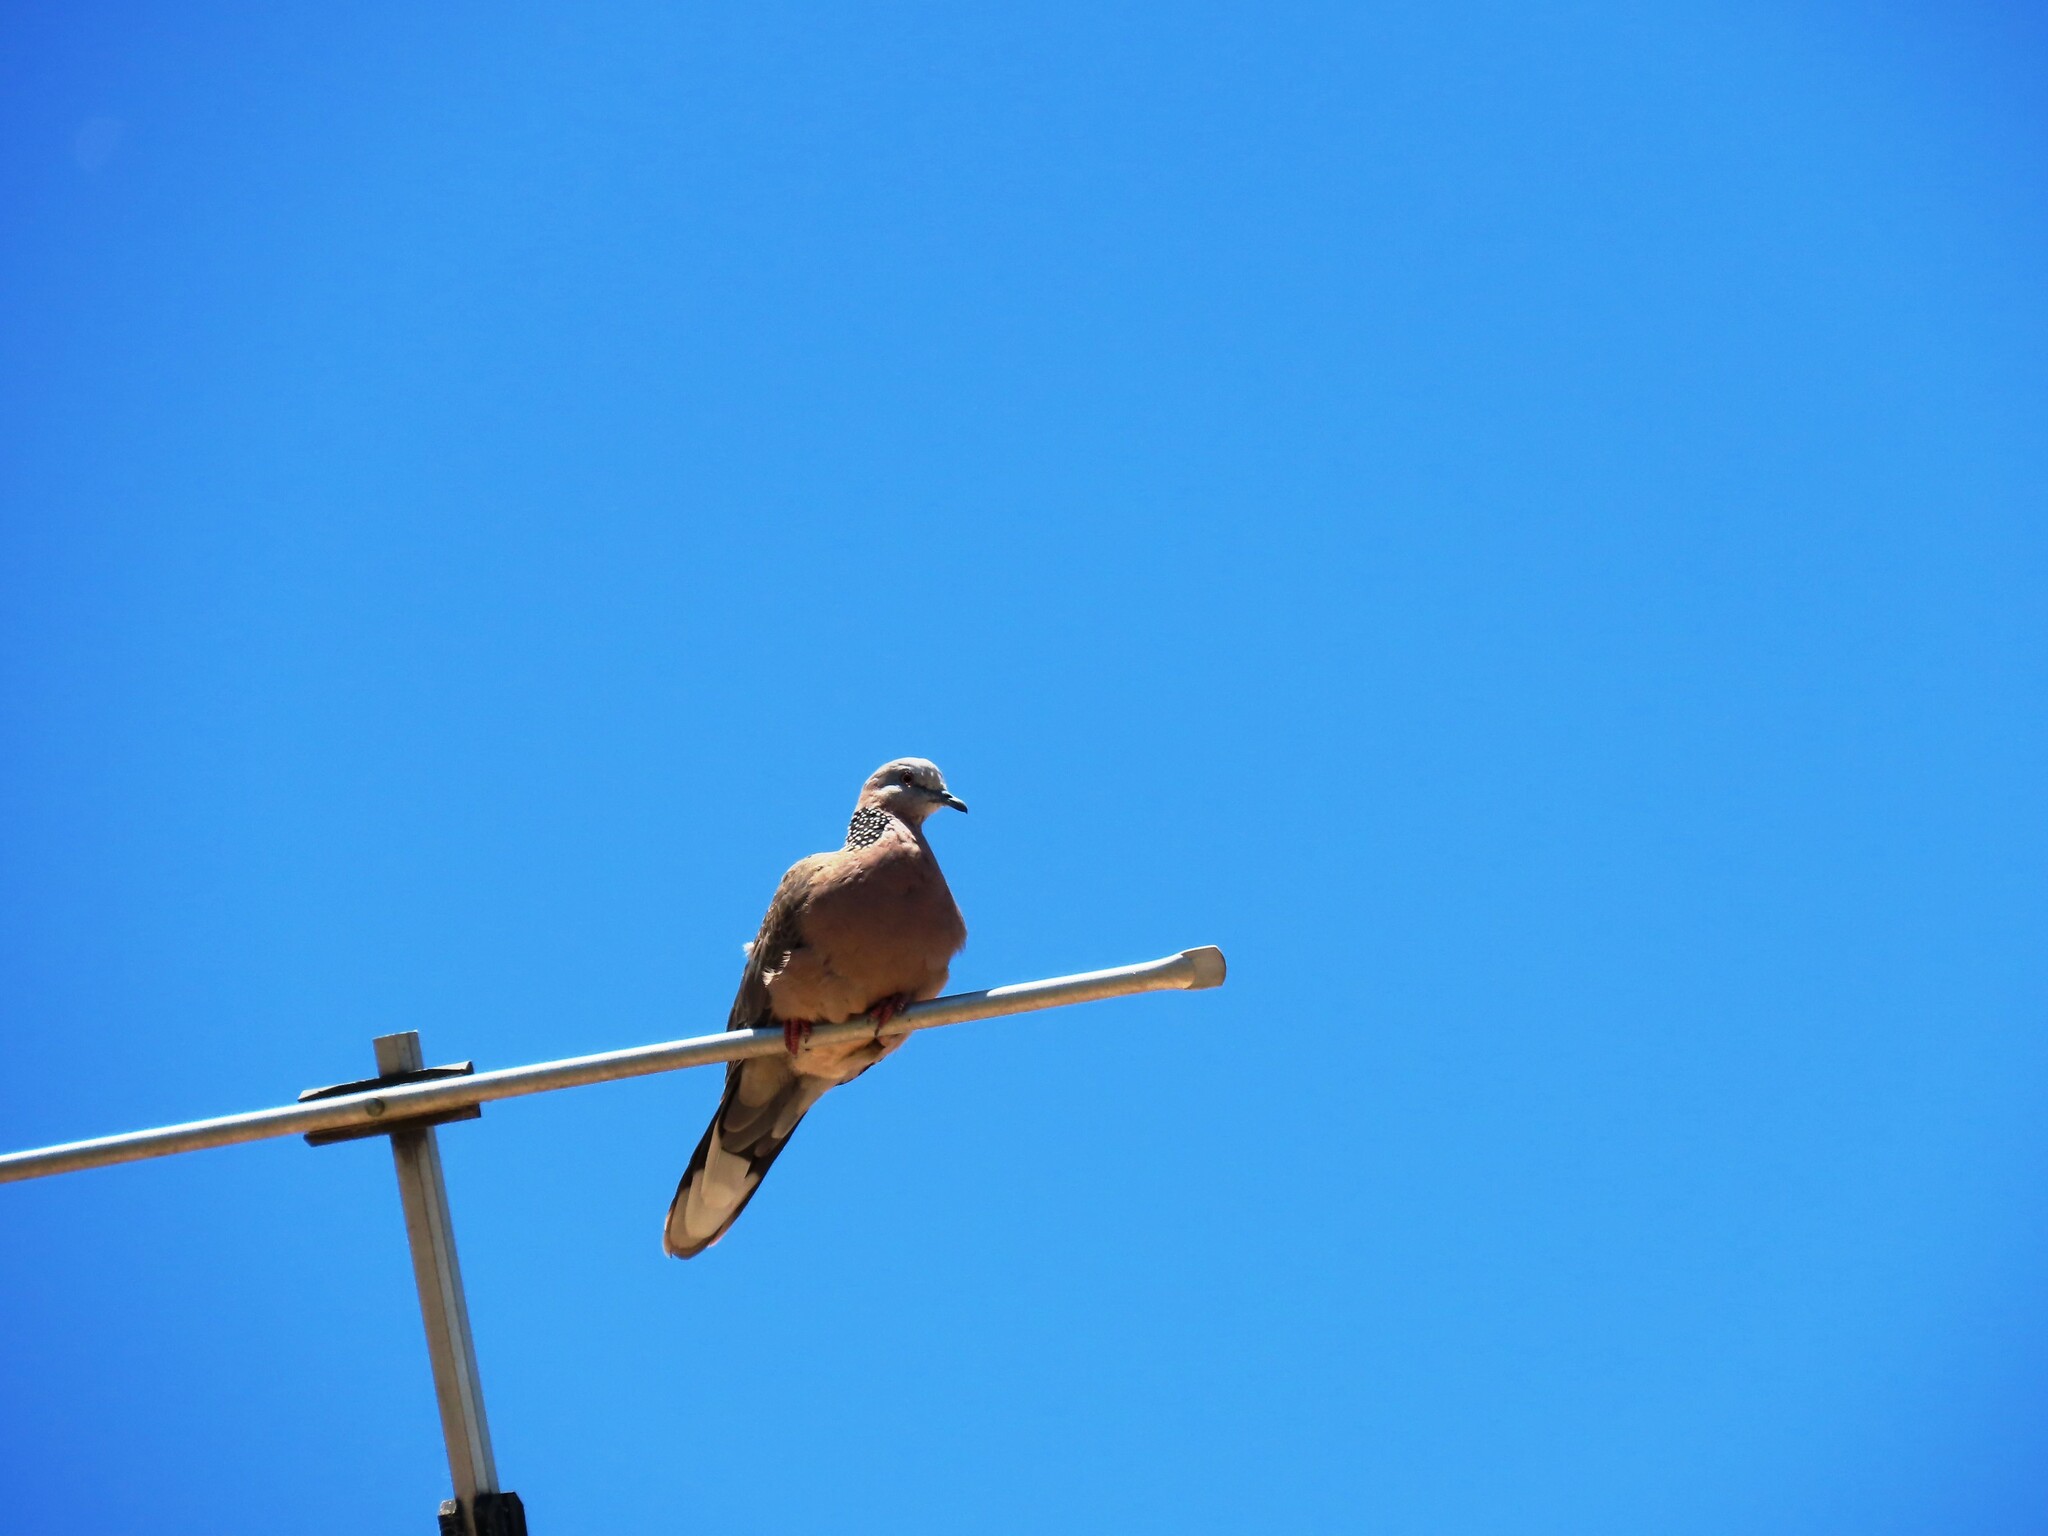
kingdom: Animalia
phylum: Chordata
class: Aves
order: Columbiformes
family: Columbidae
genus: Spilopelia
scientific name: Spilopelia chinensis
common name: Spotted dove
